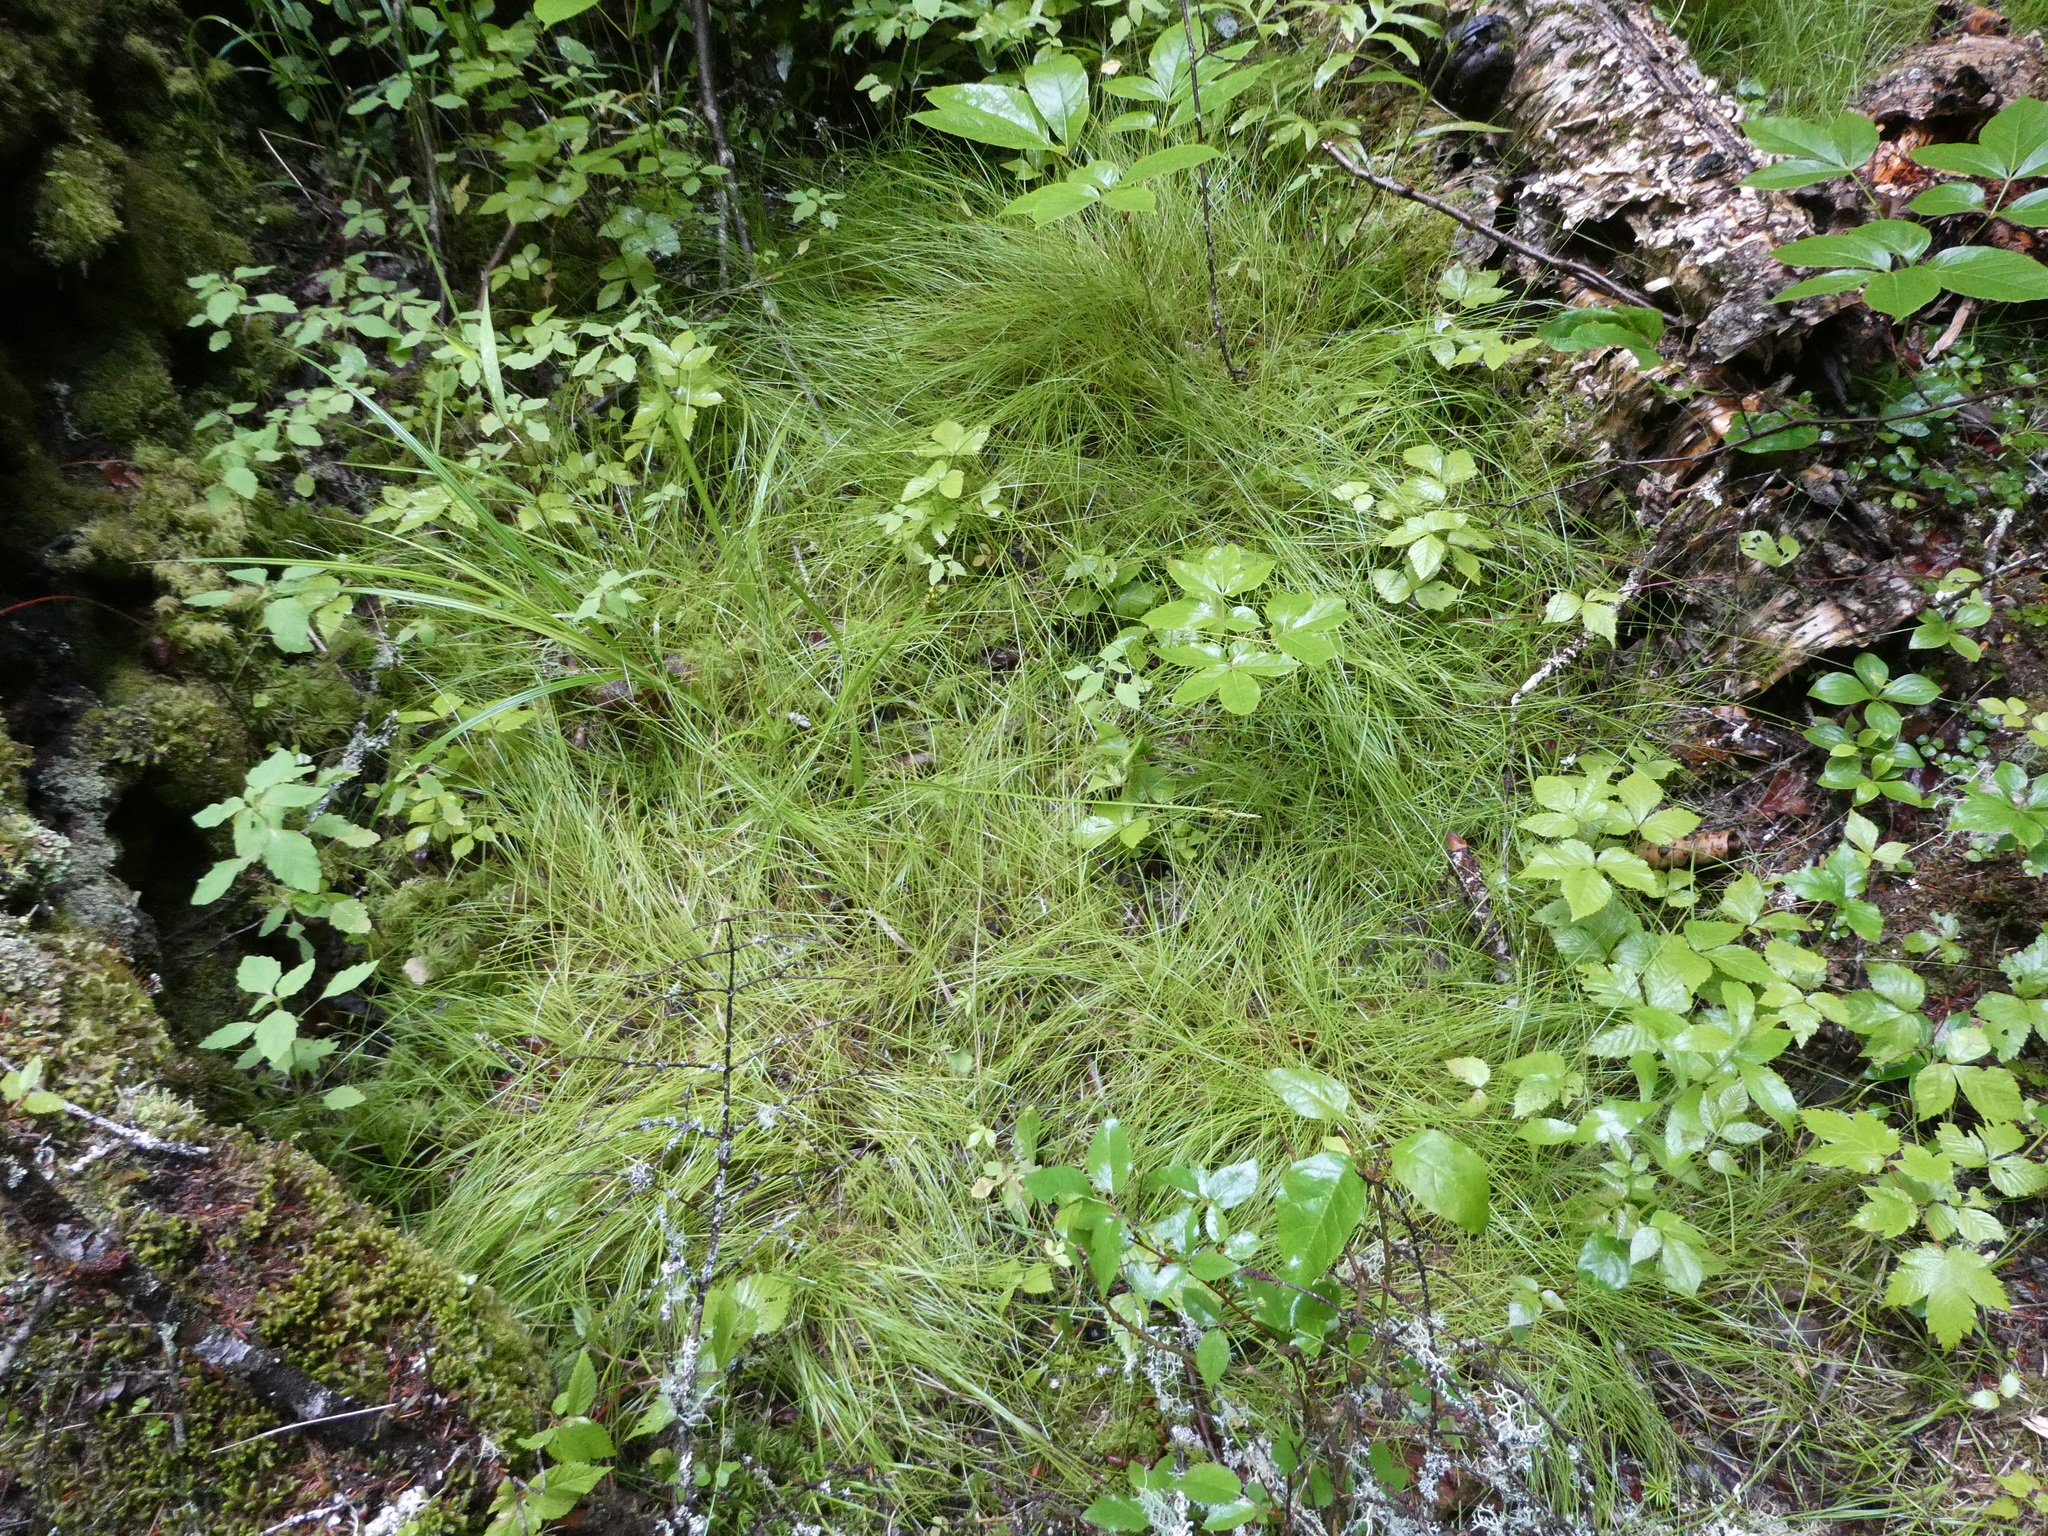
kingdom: Plantae
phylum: Tracheophyta
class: Liliopsida
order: Poales
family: Cyperaceae
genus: Carex
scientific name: Carex leptalea
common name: Bristly-stalked sedge
